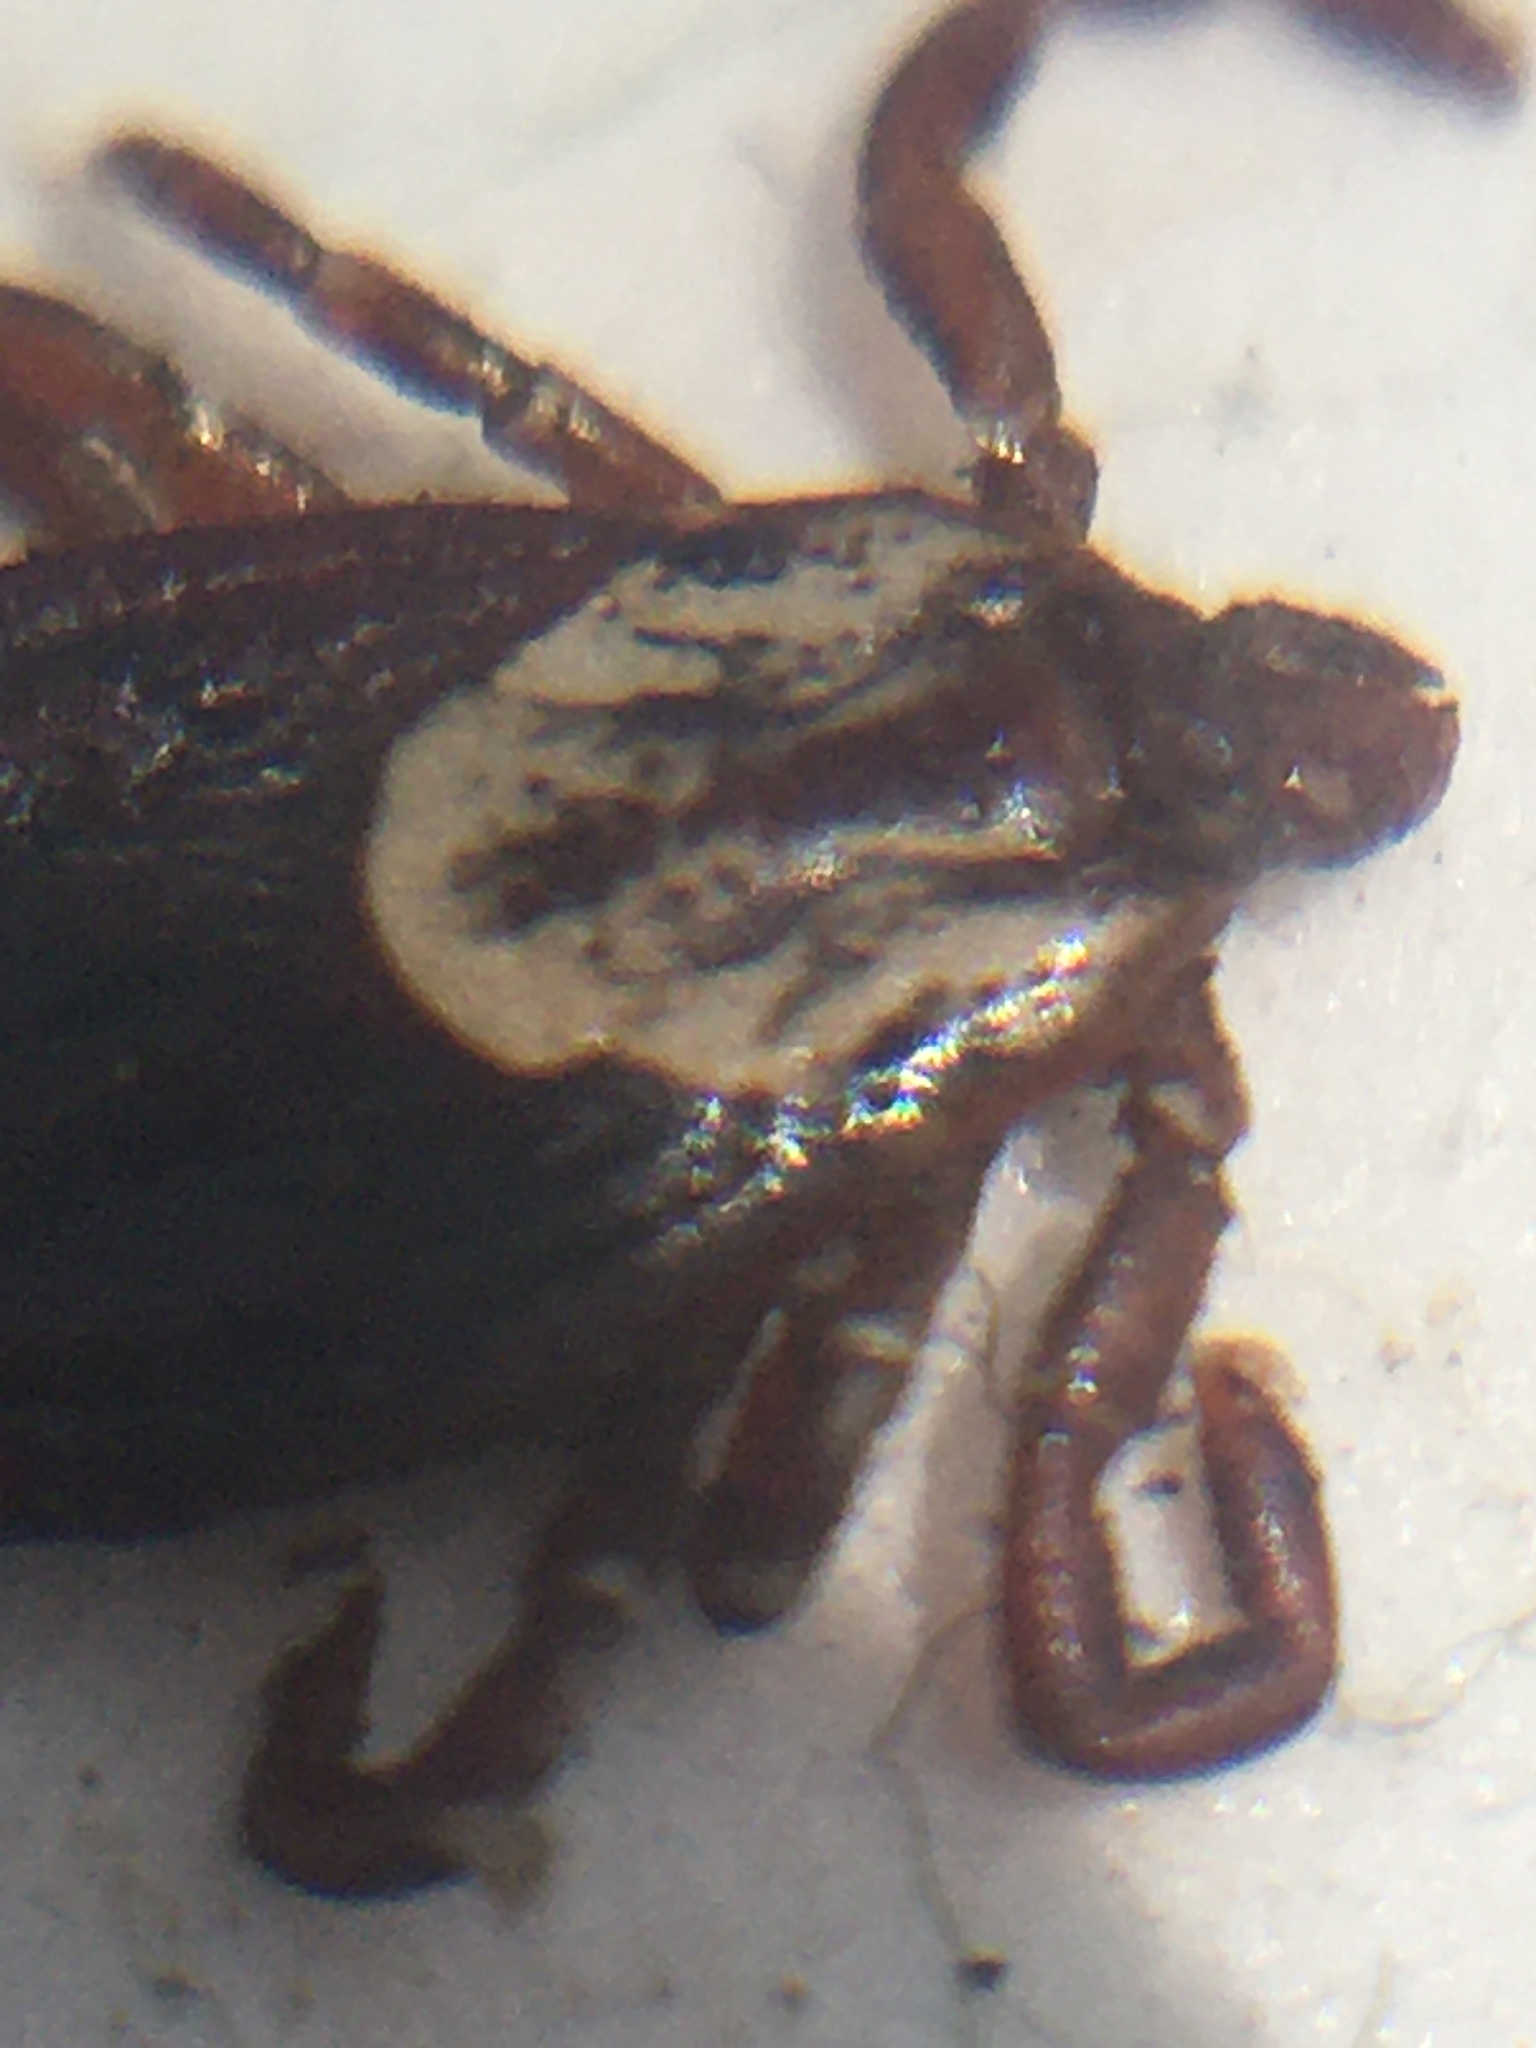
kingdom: Animalia
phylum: Arthropoda
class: Arachnida
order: Ixodida
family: Ixodidae
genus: Dermacentor
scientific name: Dermacentor variabilis
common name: American dog tick
